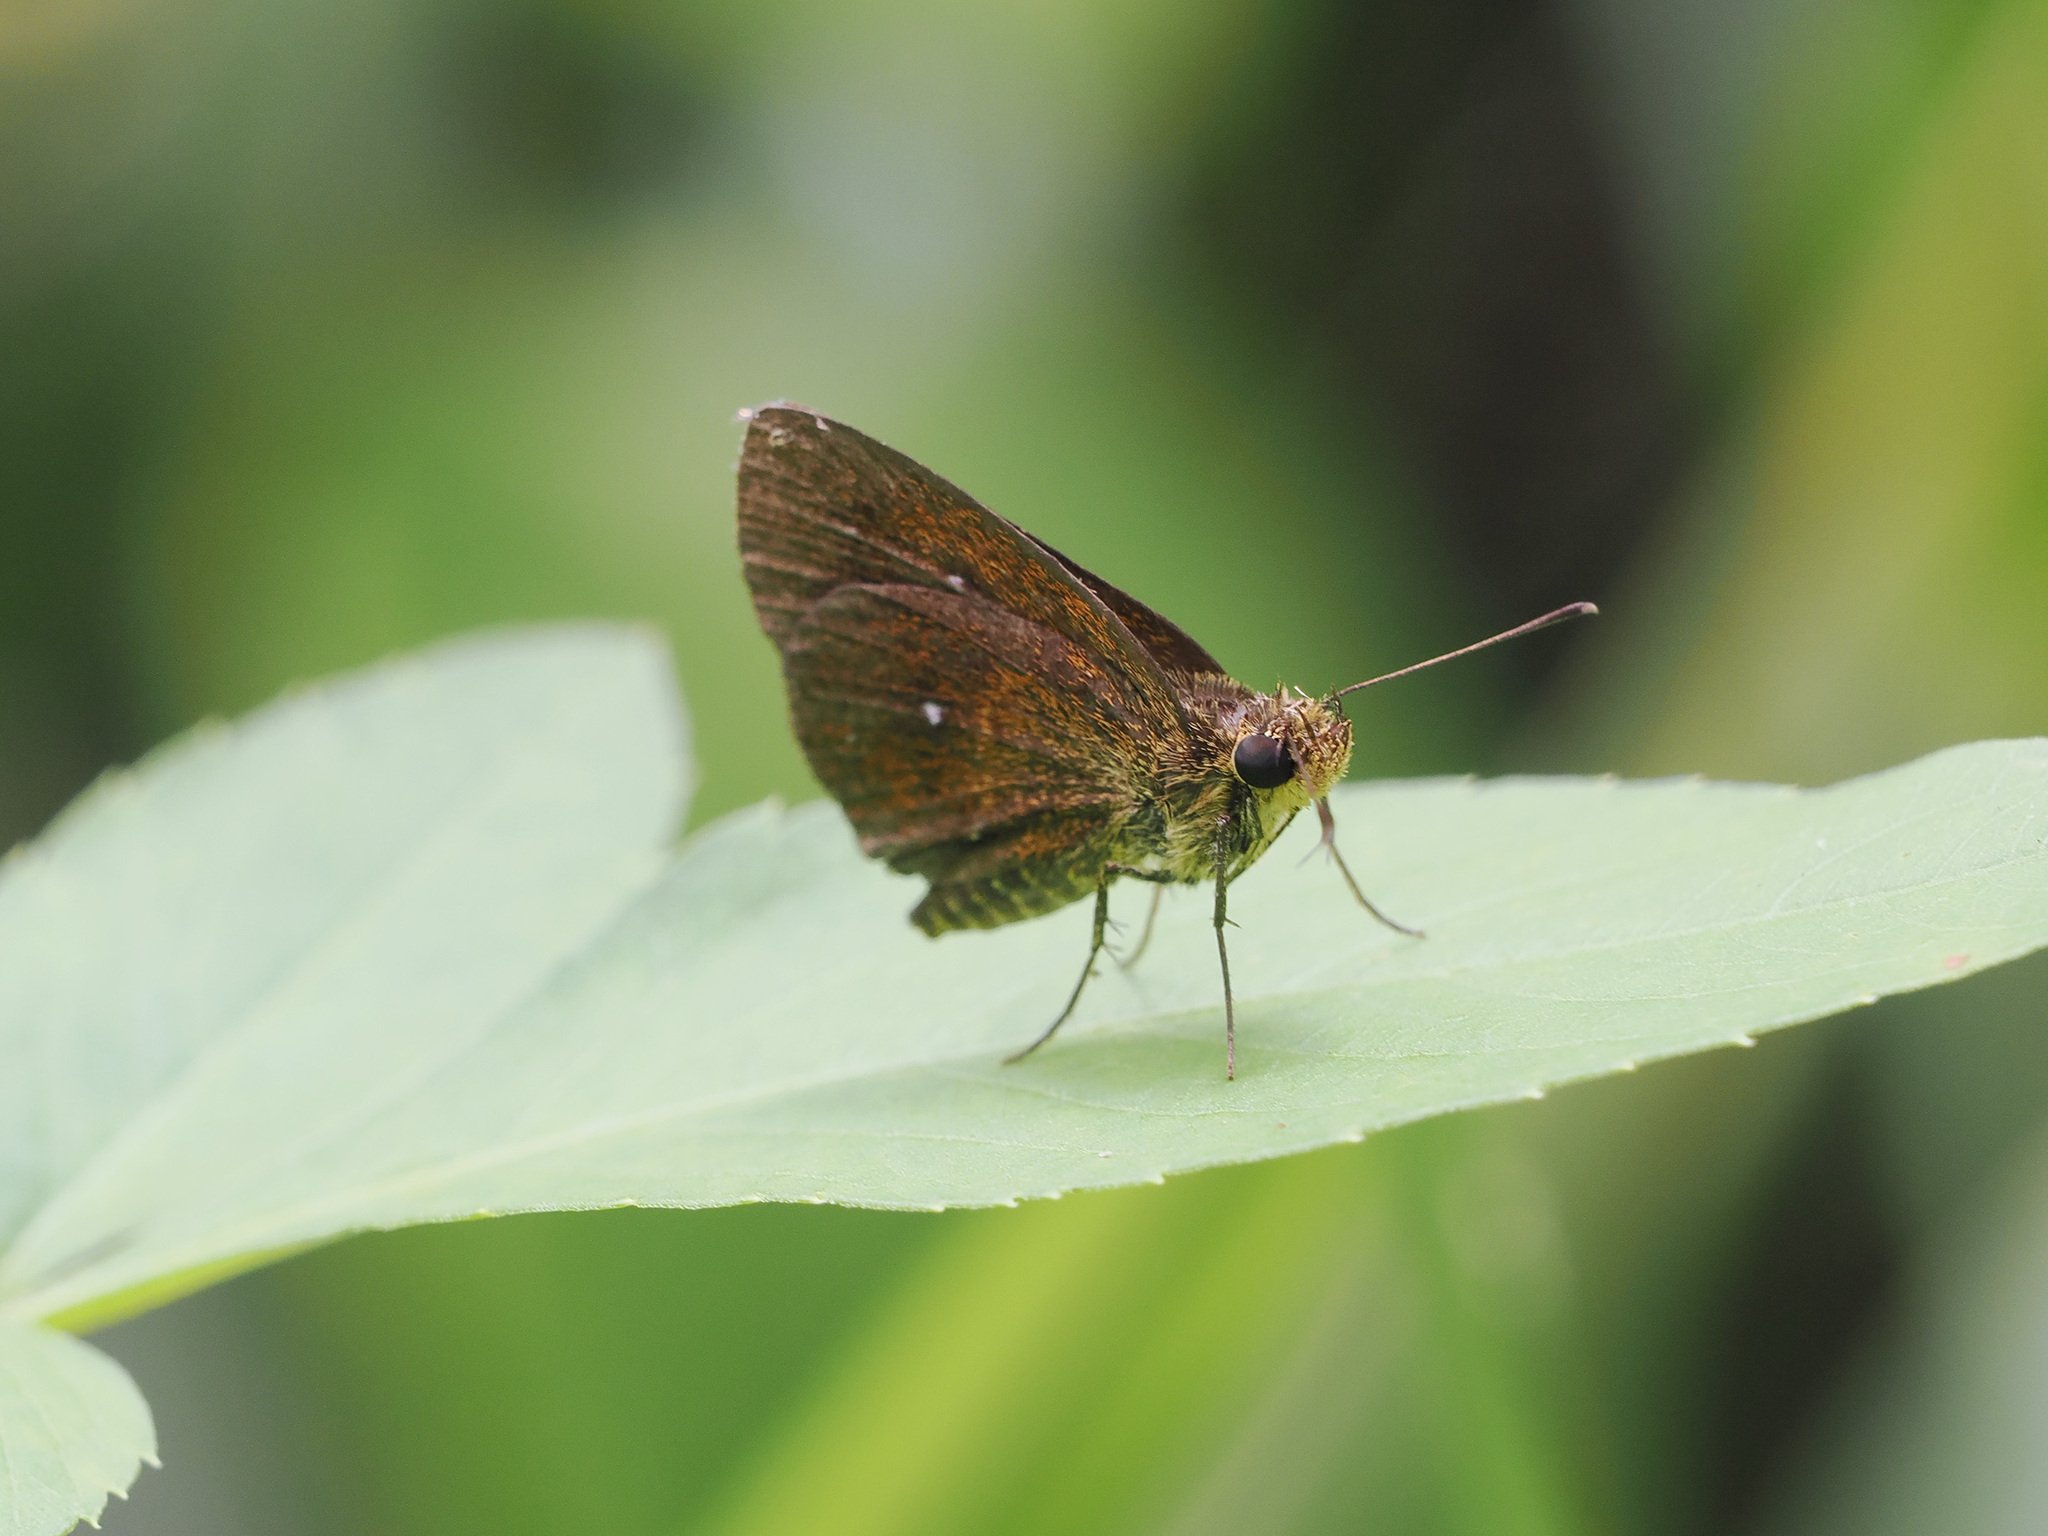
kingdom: Animalia
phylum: Arthropoda
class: Insecta
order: Lepidoptera
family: Hesperiidae
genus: Iambrix
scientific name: Iambrix salsala
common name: Chestnut bob
